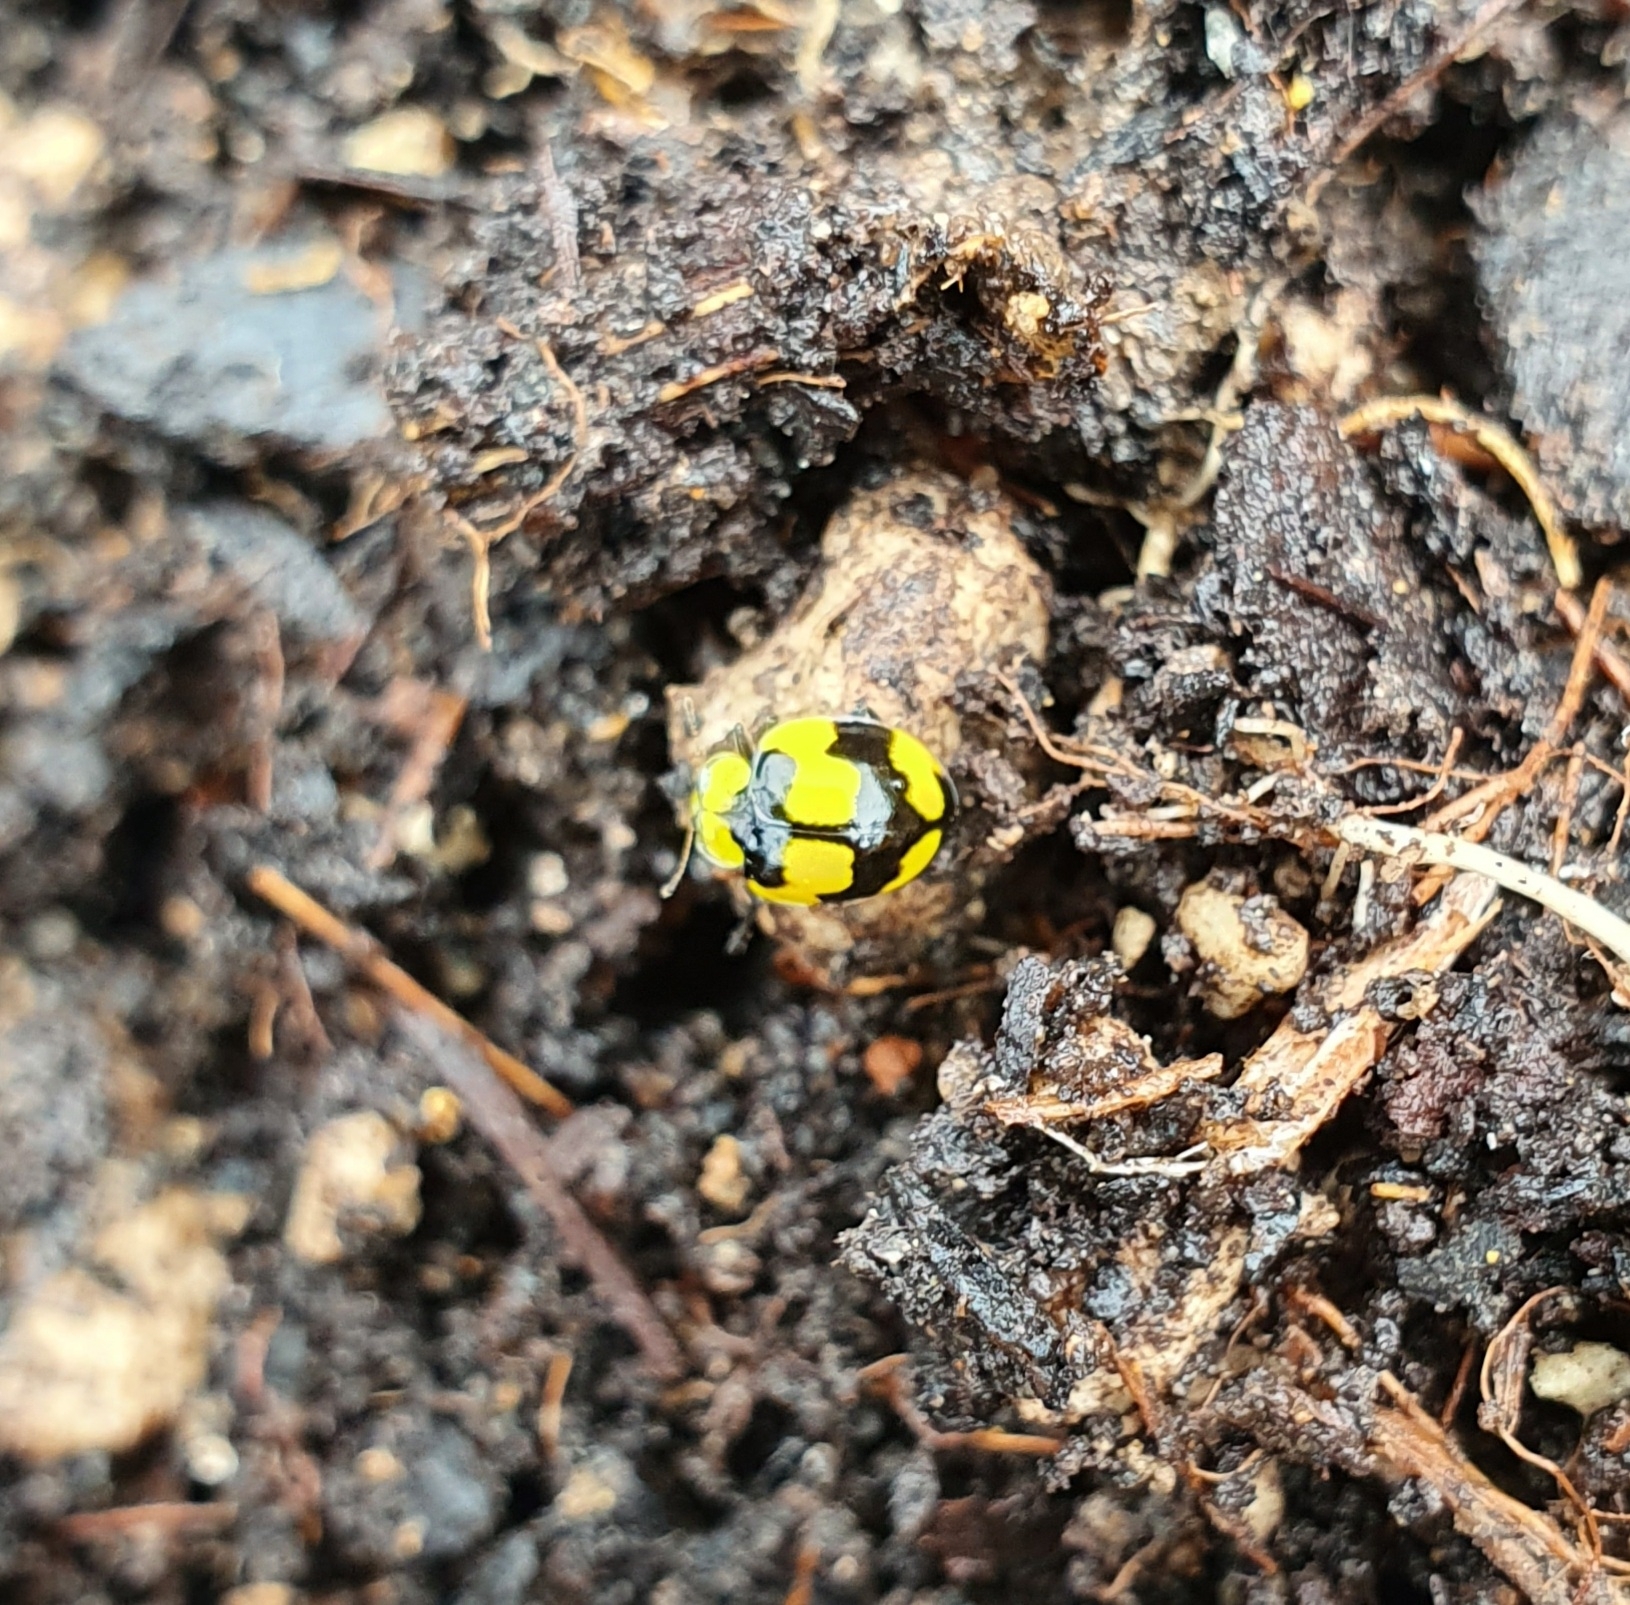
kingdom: Animalia
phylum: Arthropoda
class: Insecta
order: Coleoptera
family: Coccinellidae
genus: Illeis
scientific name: Illeis galbula
